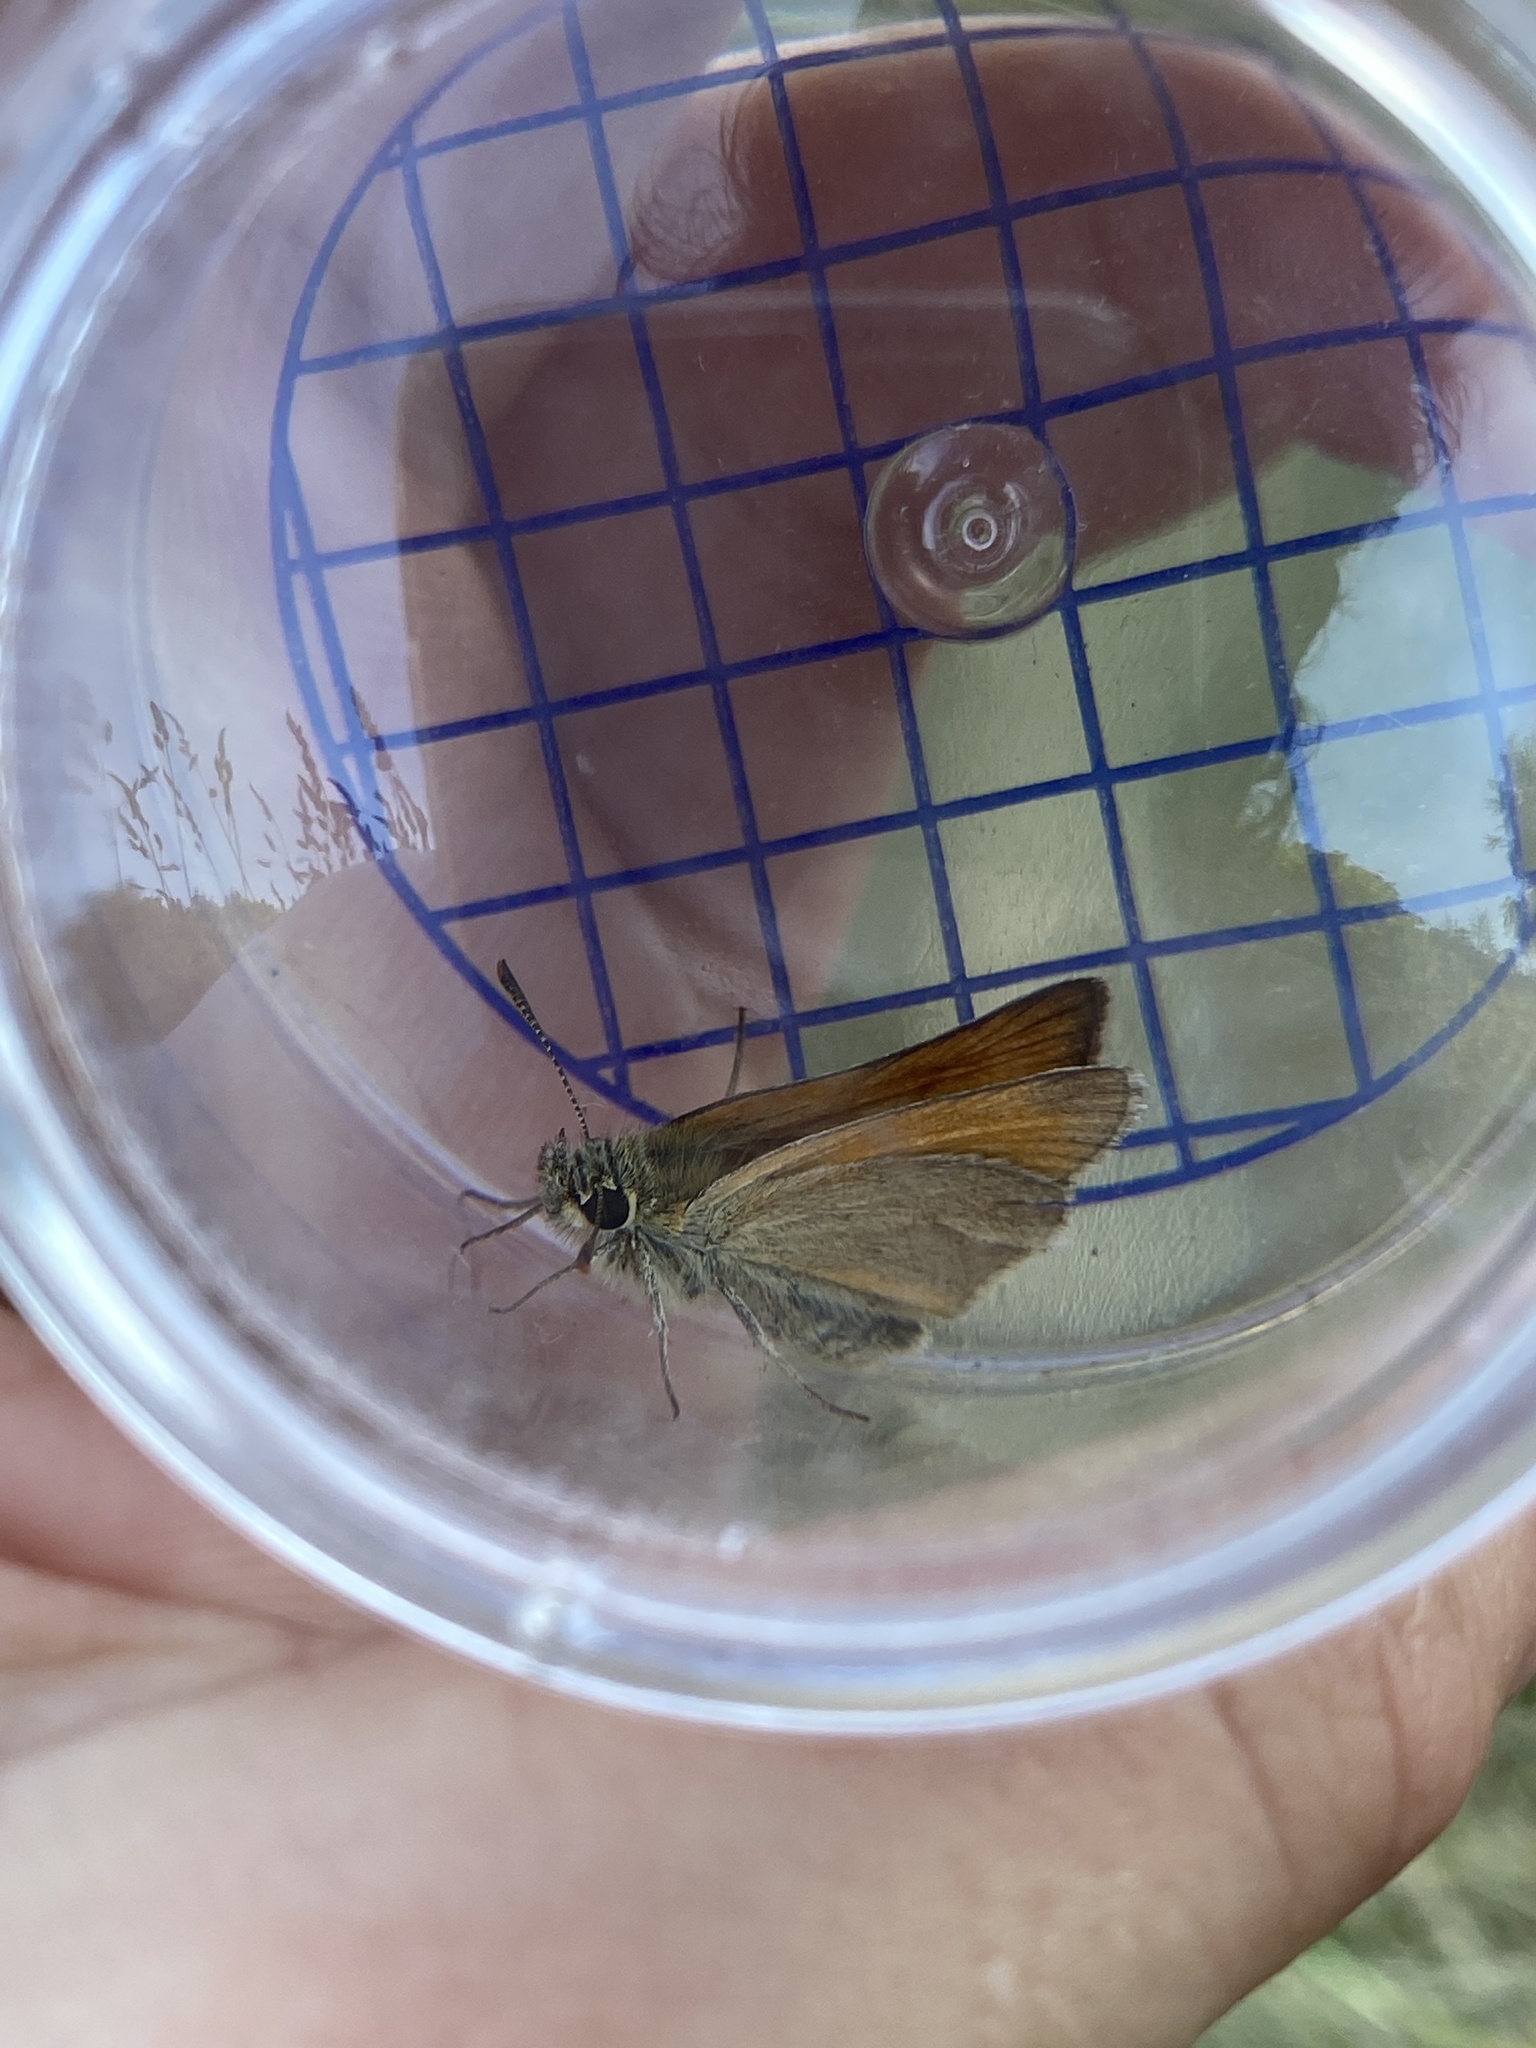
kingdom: Animalia
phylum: Arthropoda
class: Insecta
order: Lepidoptera
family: Hesperiidae
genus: Thymelicus
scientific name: Thymelicus sylvestris
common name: Small skipper
